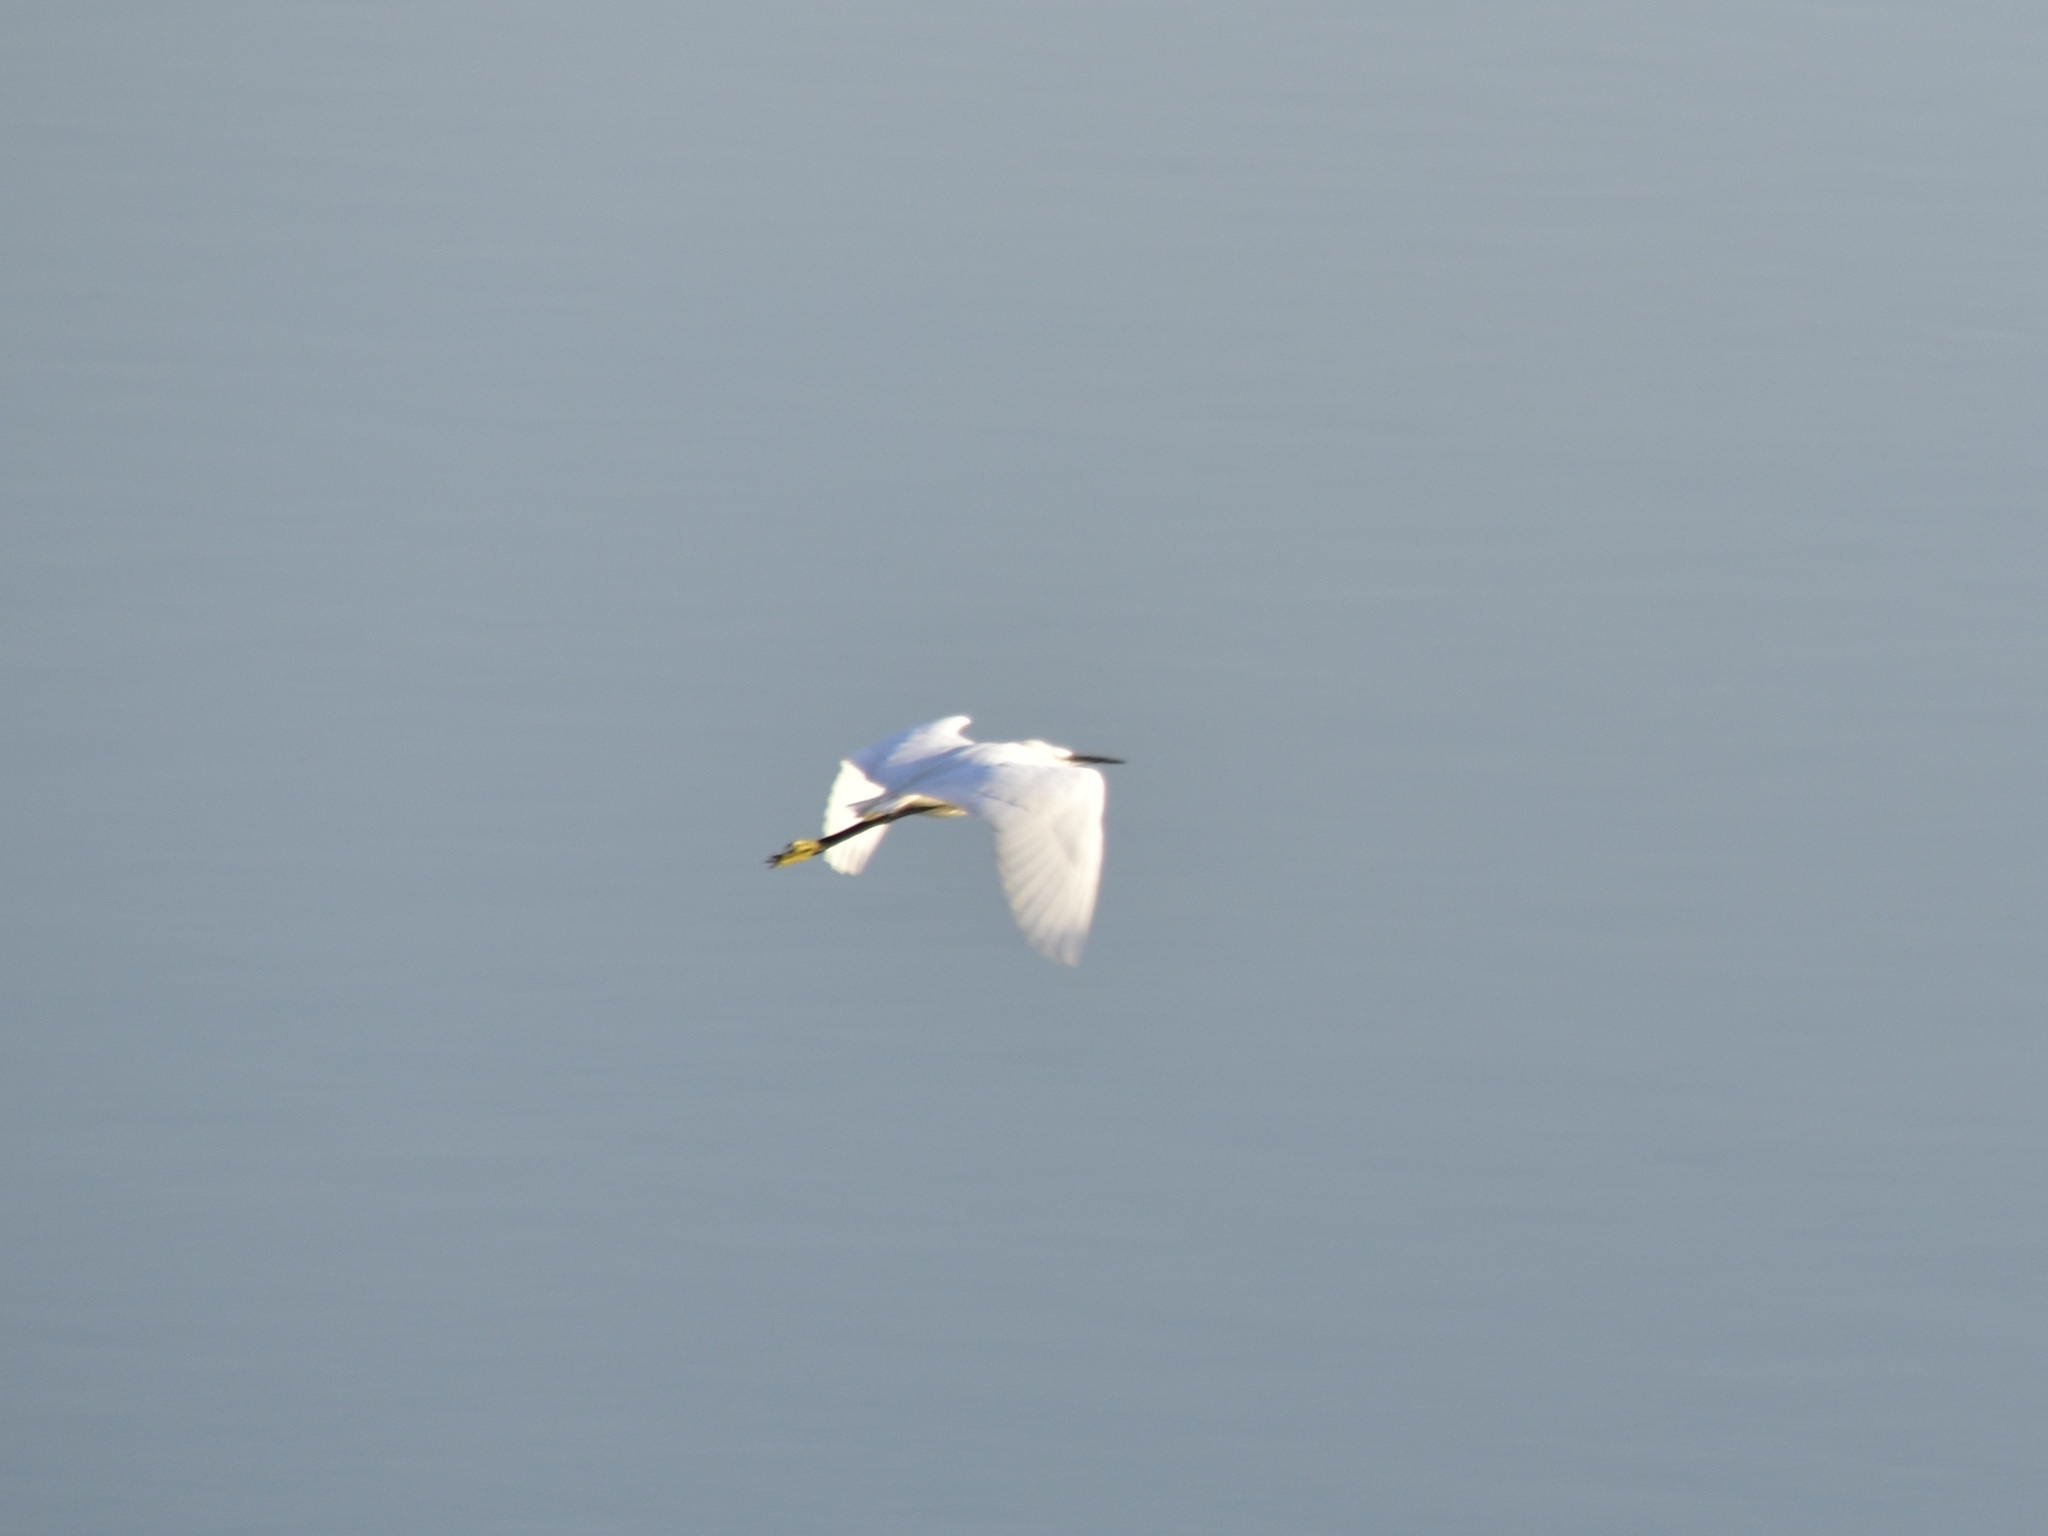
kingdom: Animalia
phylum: Chordata
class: Aves
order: Pelecaniformes
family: Ardeidae
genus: Egretta
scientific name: Egretta garzetta
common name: Little egret
